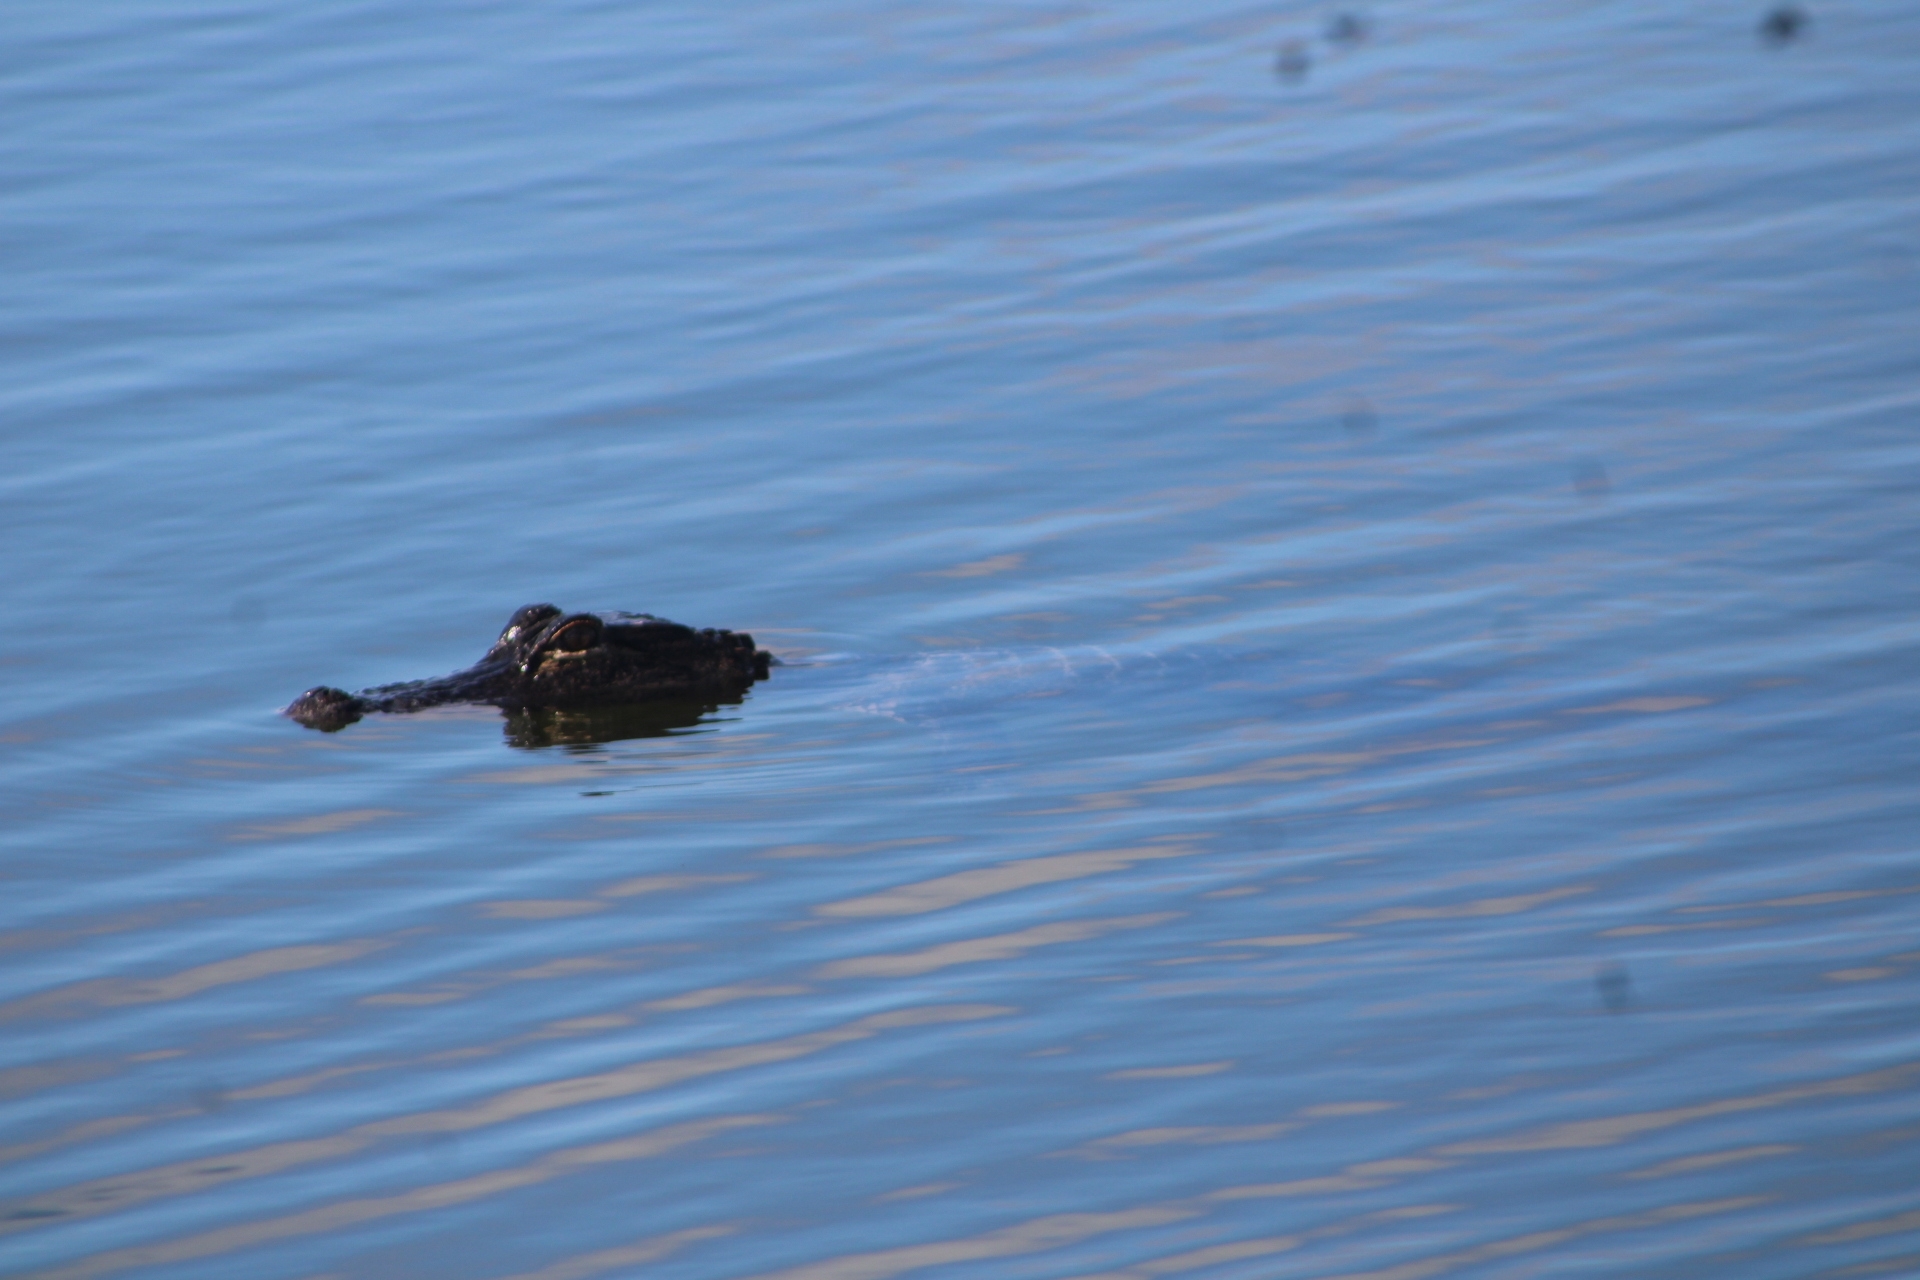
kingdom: Animalia
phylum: Chordata
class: Crocodylia
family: Alligatoridae
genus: Alligator
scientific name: Alligator mississippiensis
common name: American alligator
